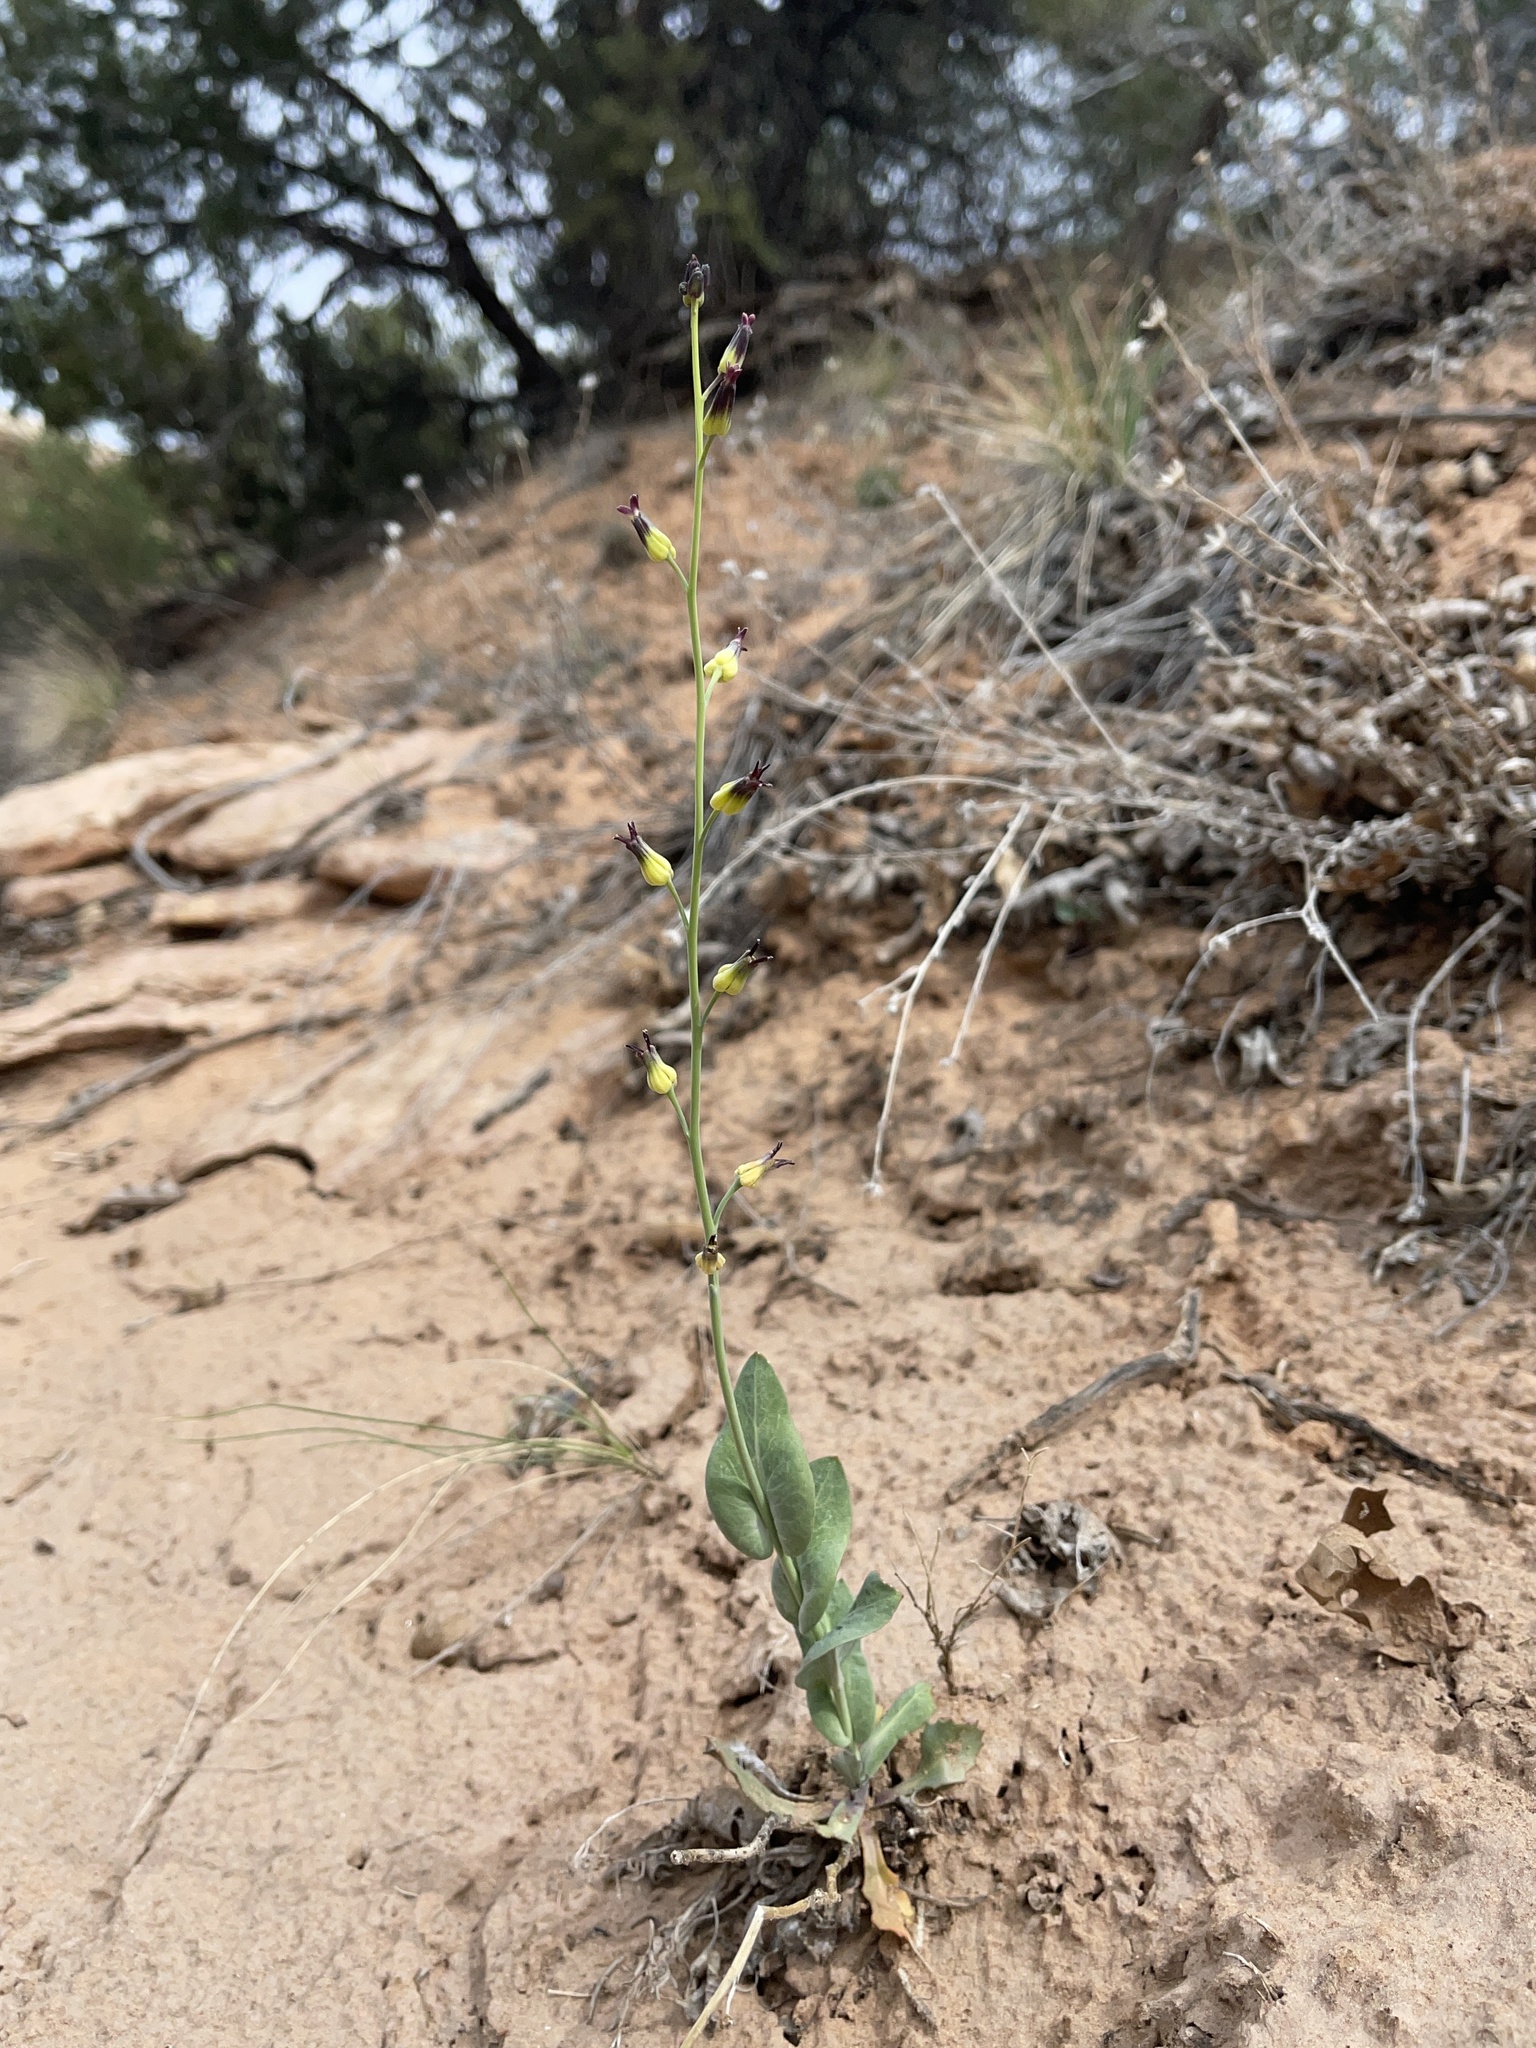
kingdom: Plantae
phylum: Tracheophyta
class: Magnoliopsida
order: Brassicales
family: Brassicaceae
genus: Streptanthus
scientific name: Streptanthus cordatus
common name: Heart-leaf jewel-flower
